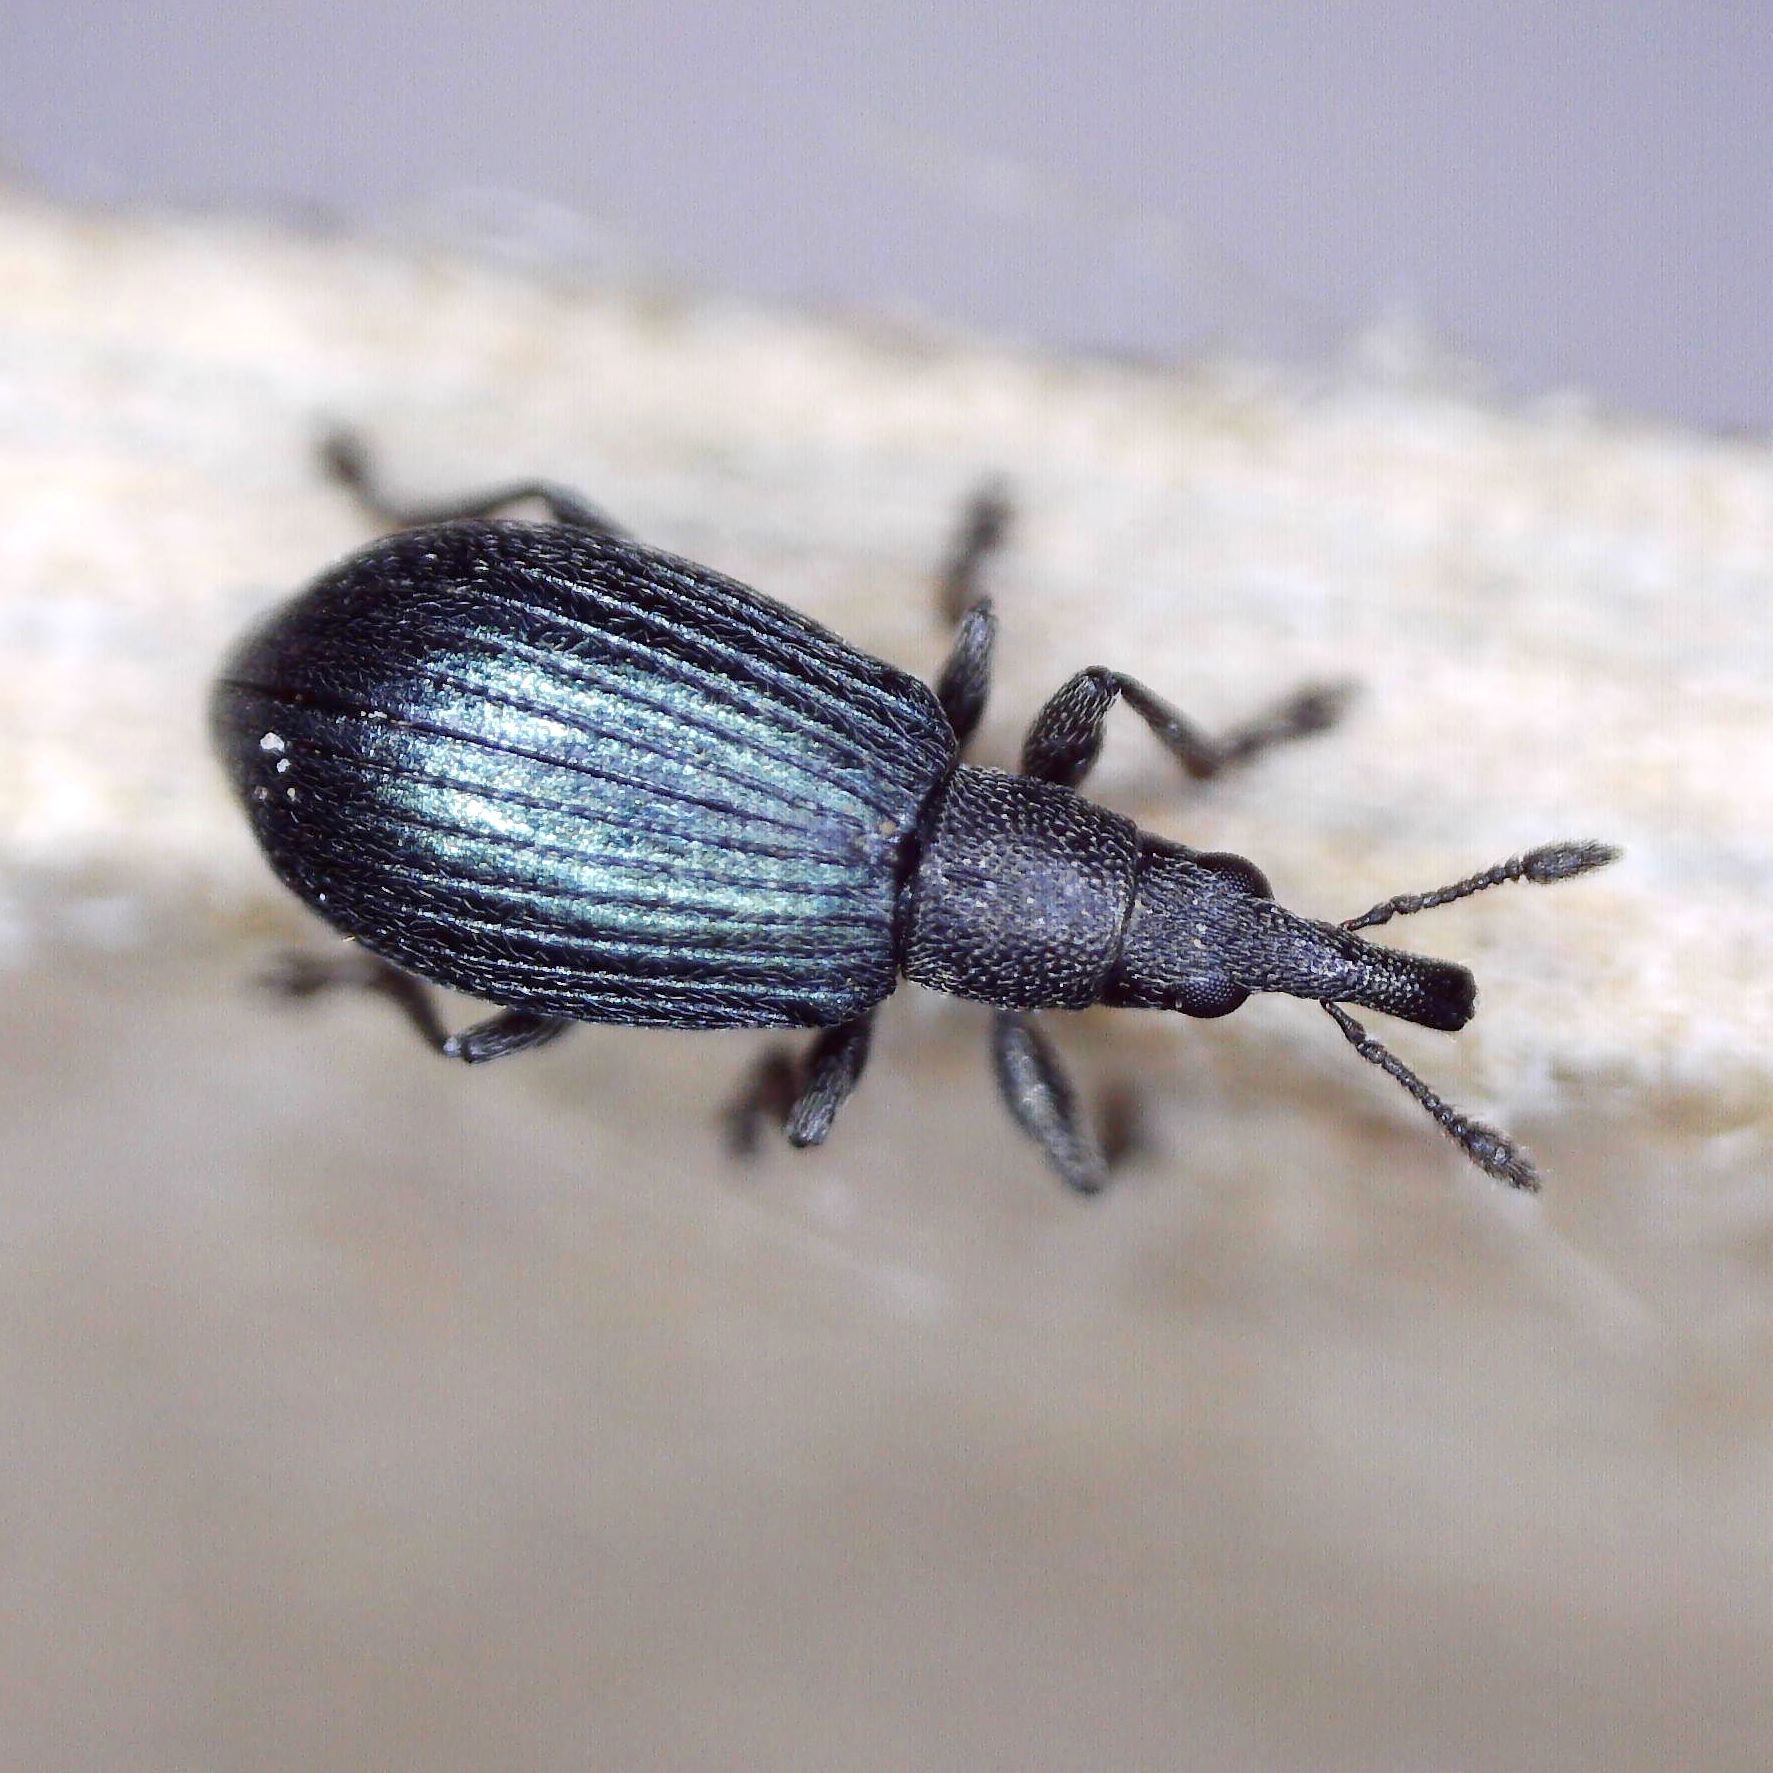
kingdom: Animalia
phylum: Arthropoda
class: Insecta
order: Coleoptera
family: Brentidae
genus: Perapion
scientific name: Perapion hydrolapathi
